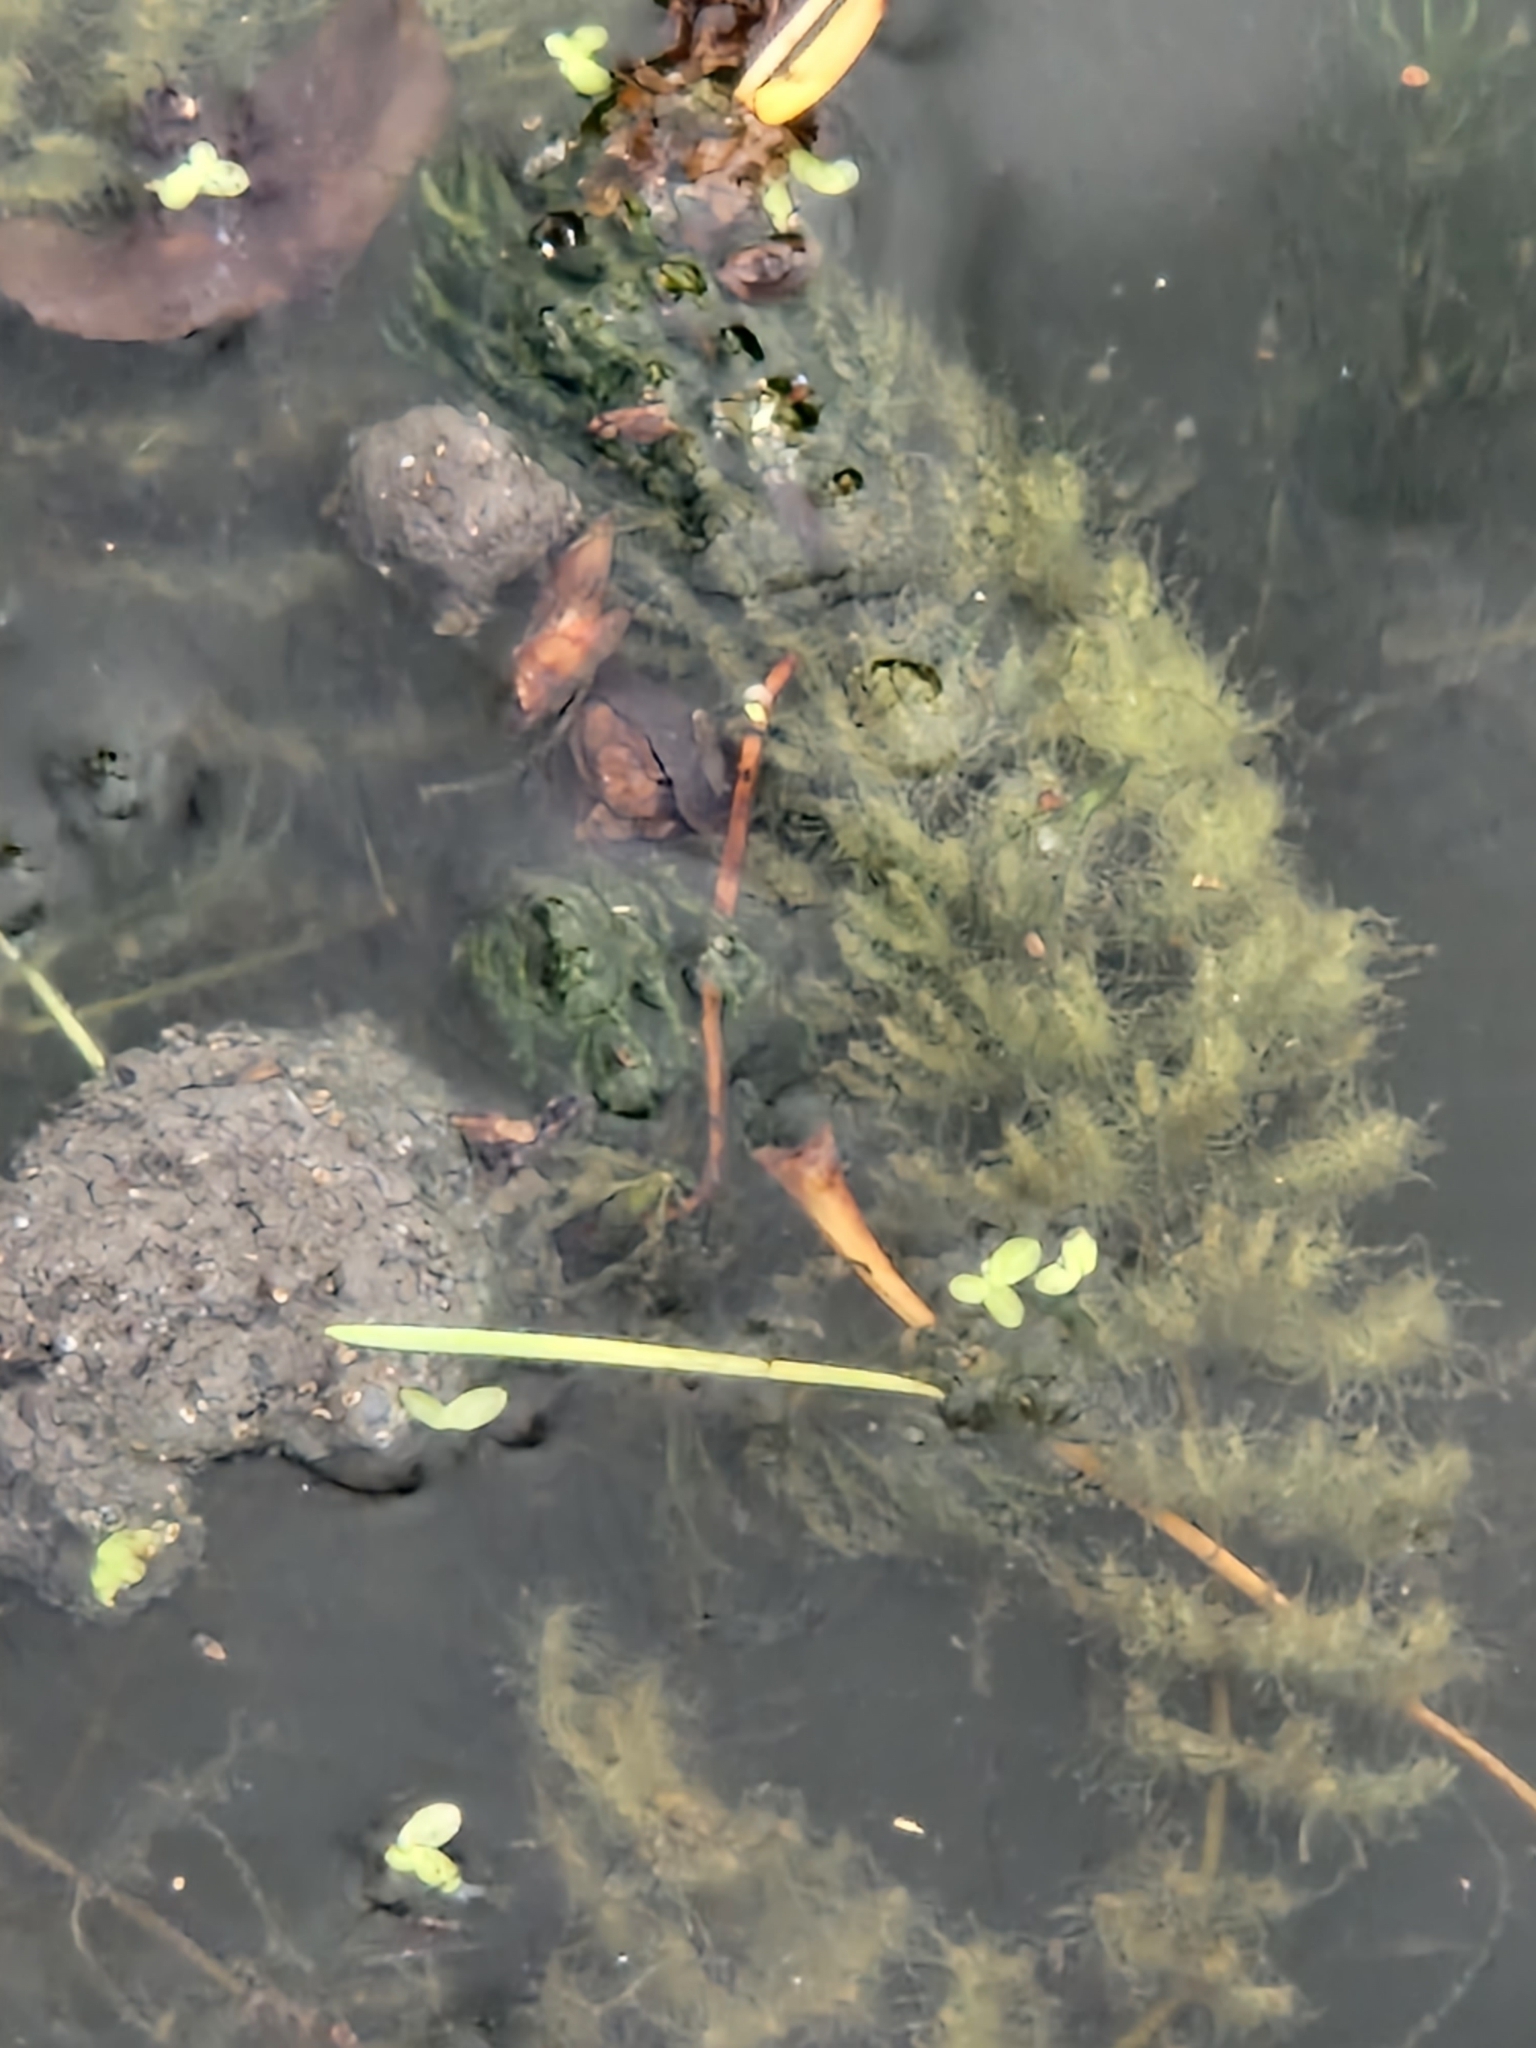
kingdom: Plantae
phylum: Tracheophyta
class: Magnoliopsida
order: Ceratophyllales
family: Ceratophyllaceae
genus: Ceratophyllum
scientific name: Ceratophyllum demersum
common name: Rigid hornwort
